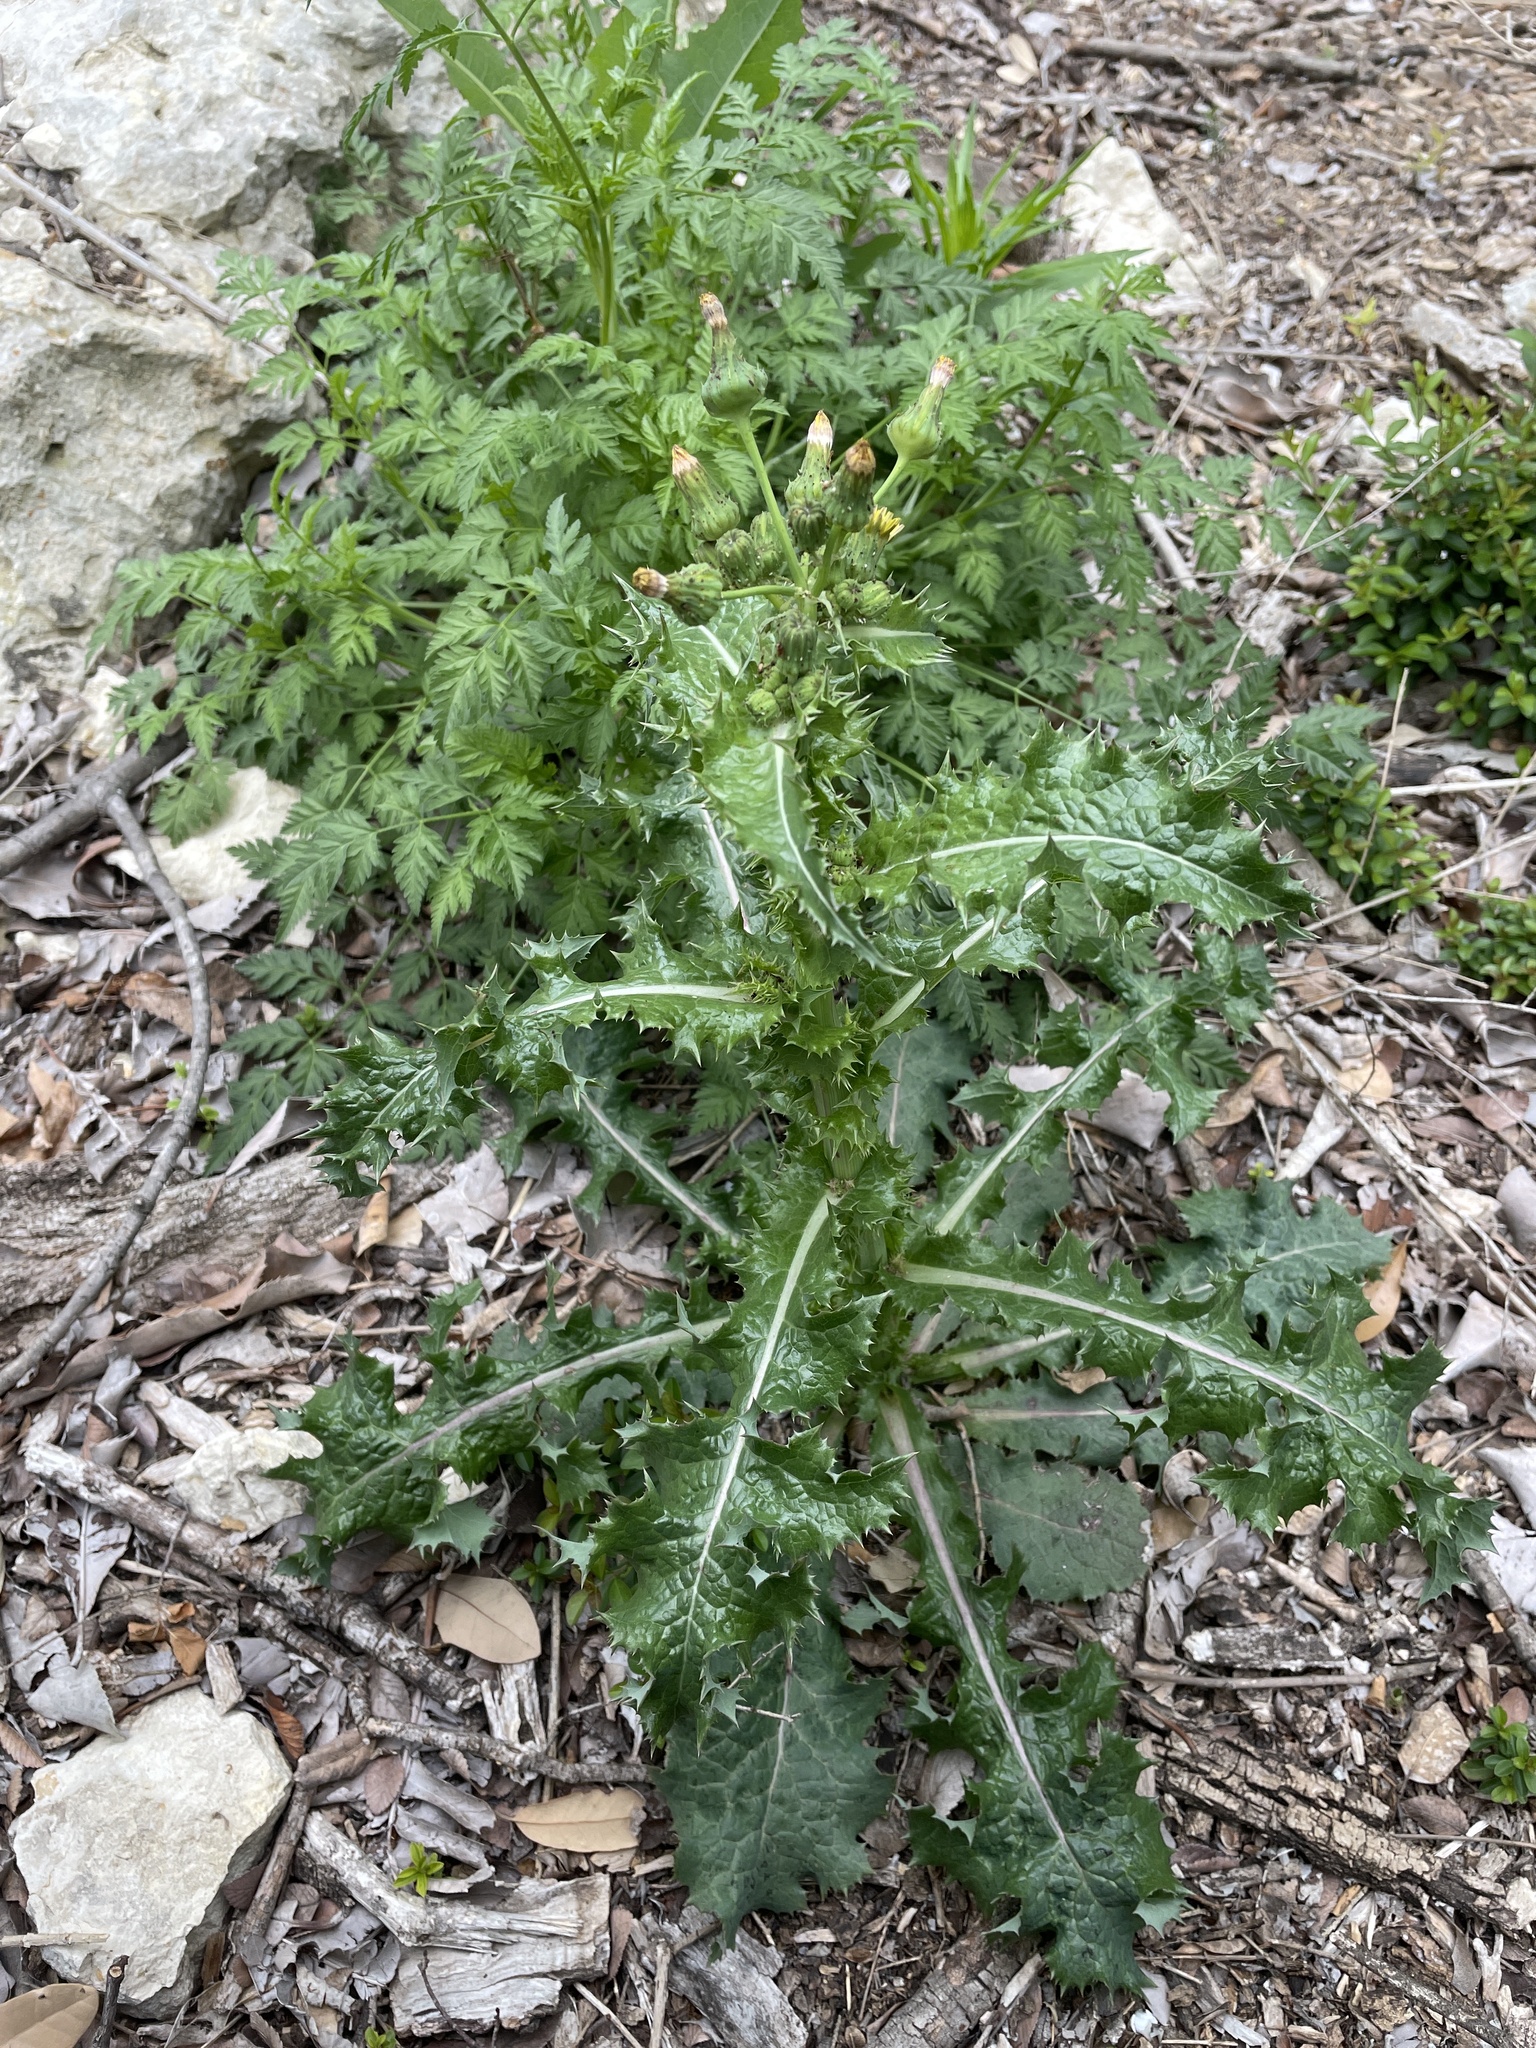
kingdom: Plantae
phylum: Tracheophyta
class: Magnoliopsida
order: Asterales
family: Asteraceae
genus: Sonchus
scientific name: Sonchus asper
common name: Prickly sow-thistle
